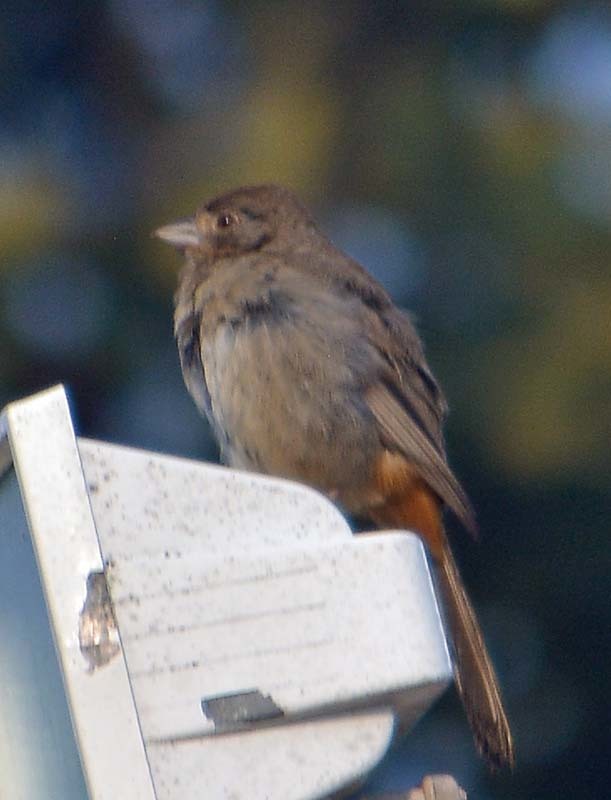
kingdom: Animalia
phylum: Chordata
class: Aves
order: Passeriformes
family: Passerellidae
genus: Melozone
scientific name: Melozone fusca
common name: Canyon towhee
